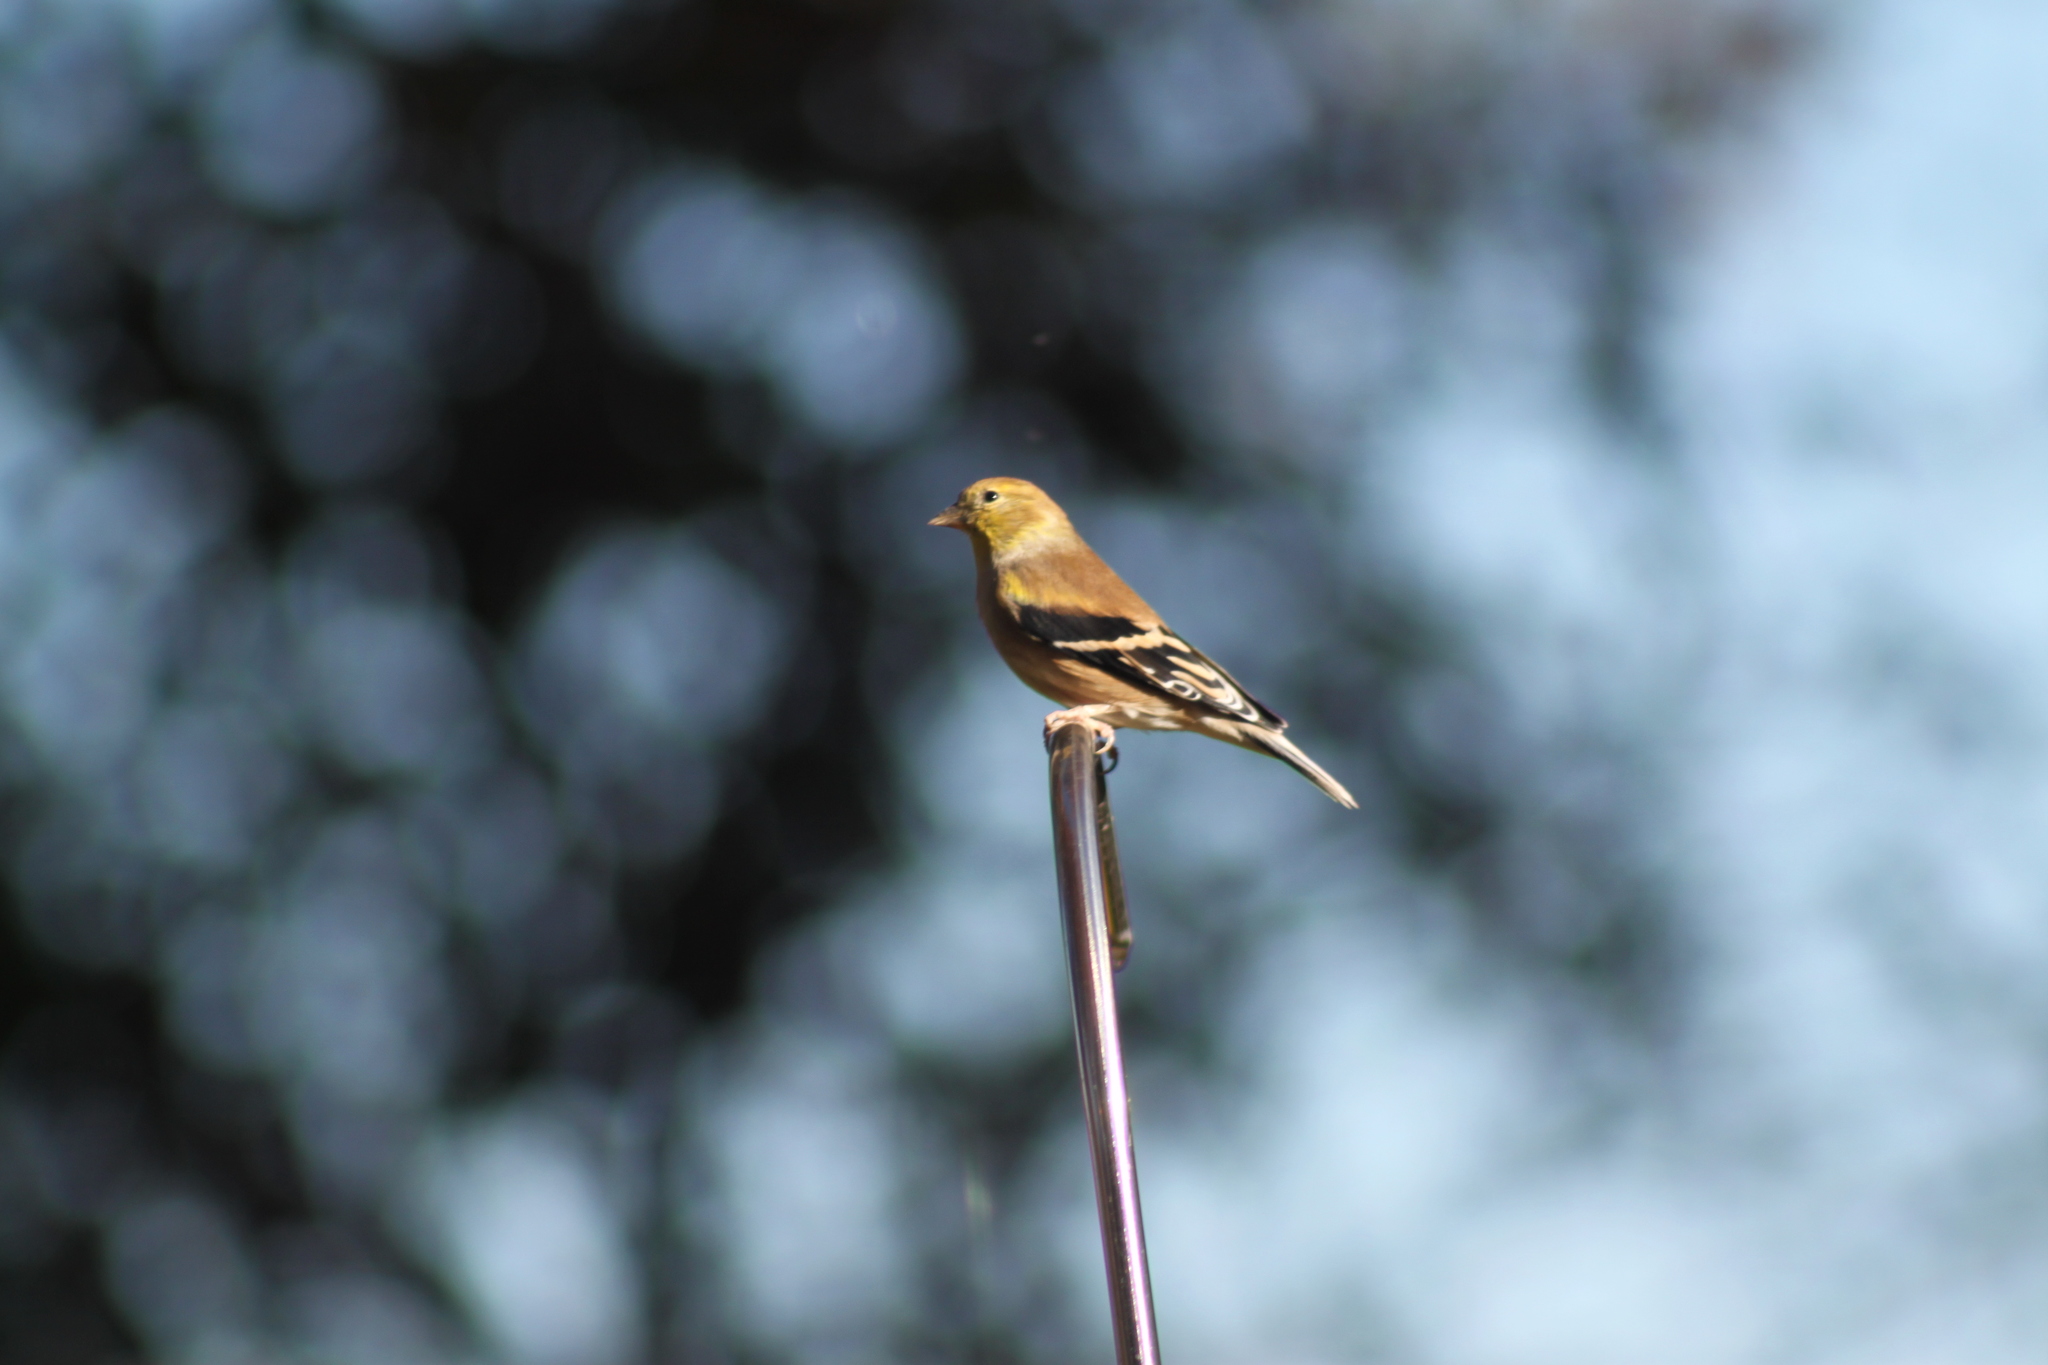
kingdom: Animalia
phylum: Chordata
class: Aves
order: Passeriformes
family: Fringillidae
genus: Spinus
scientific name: Spinus tristis
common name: American goldfinch
